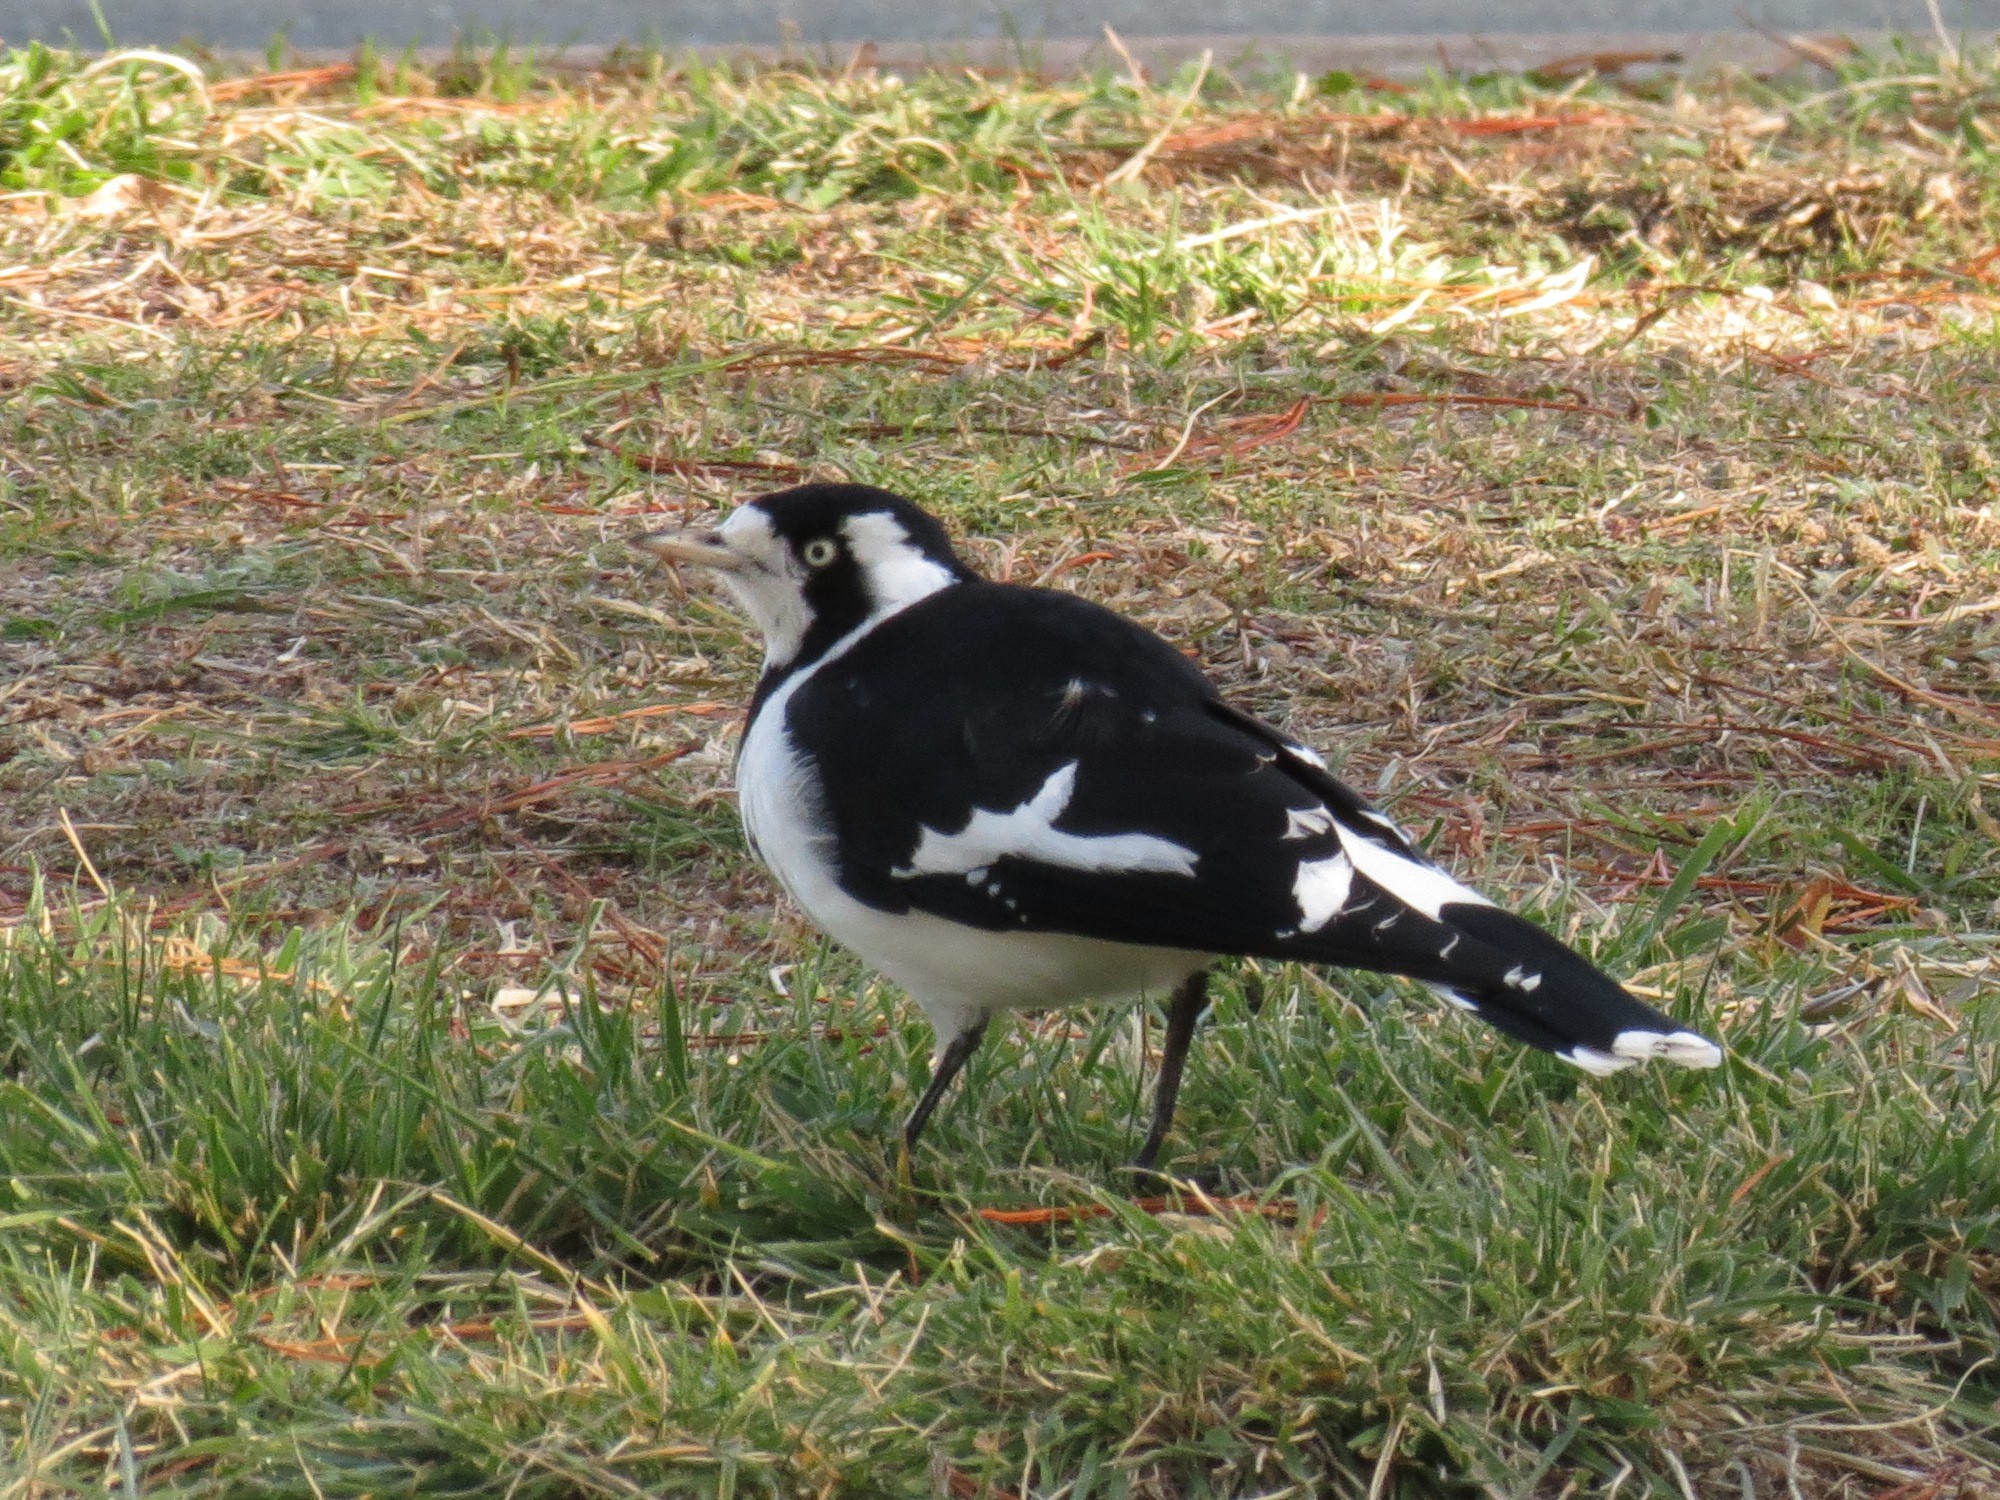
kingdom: Animalia
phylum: Chordata
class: Aves
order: Passeriformes
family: Monarchidae
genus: Grallina
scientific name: Grallina cyanoleuca
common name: Magpie-lark
